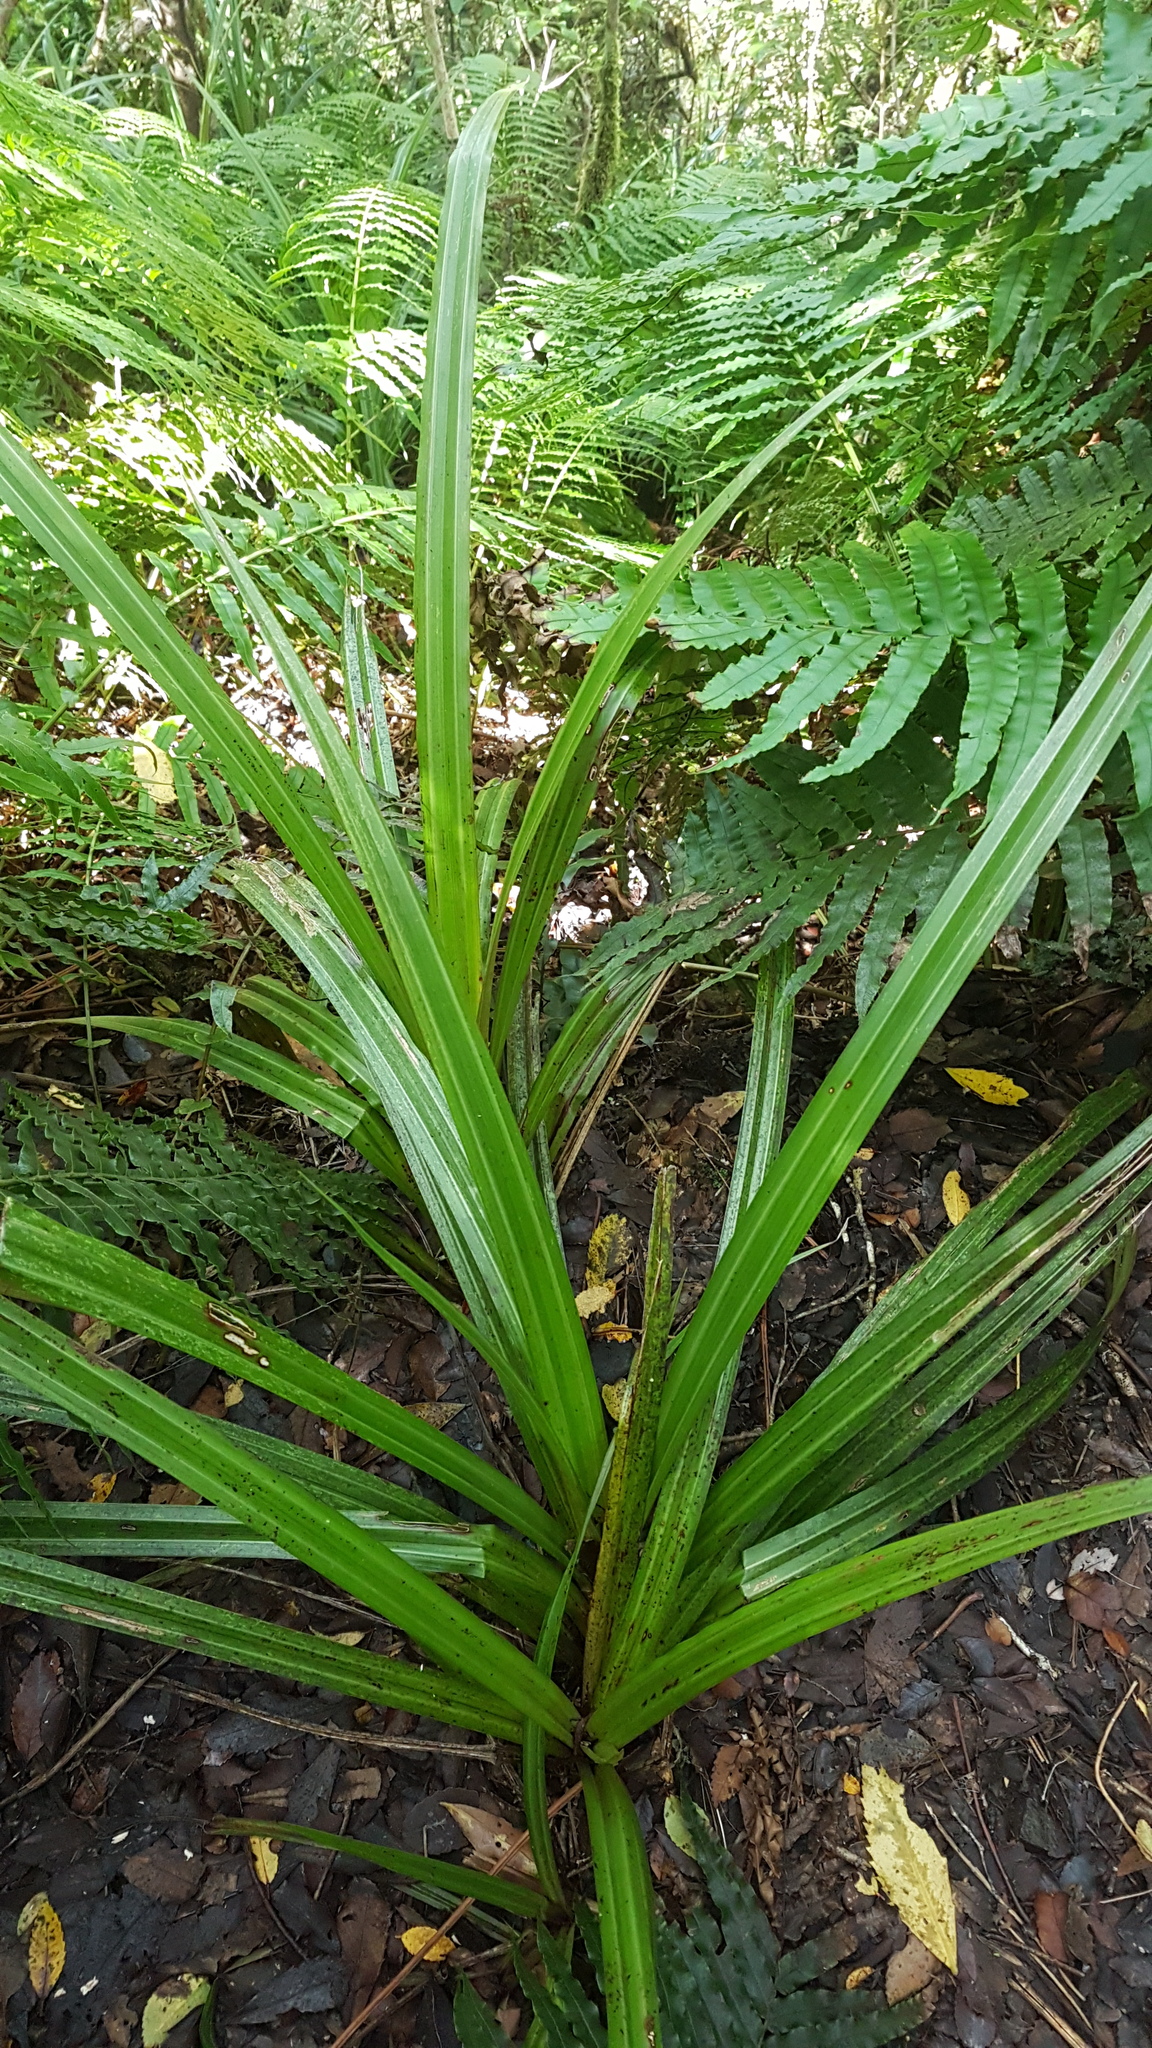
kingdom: Plantae
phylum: Tracheophyta
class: Liliopsida
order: Asparagales
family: Asteliaceae
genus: Astelia
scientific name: Astelia fragrans
